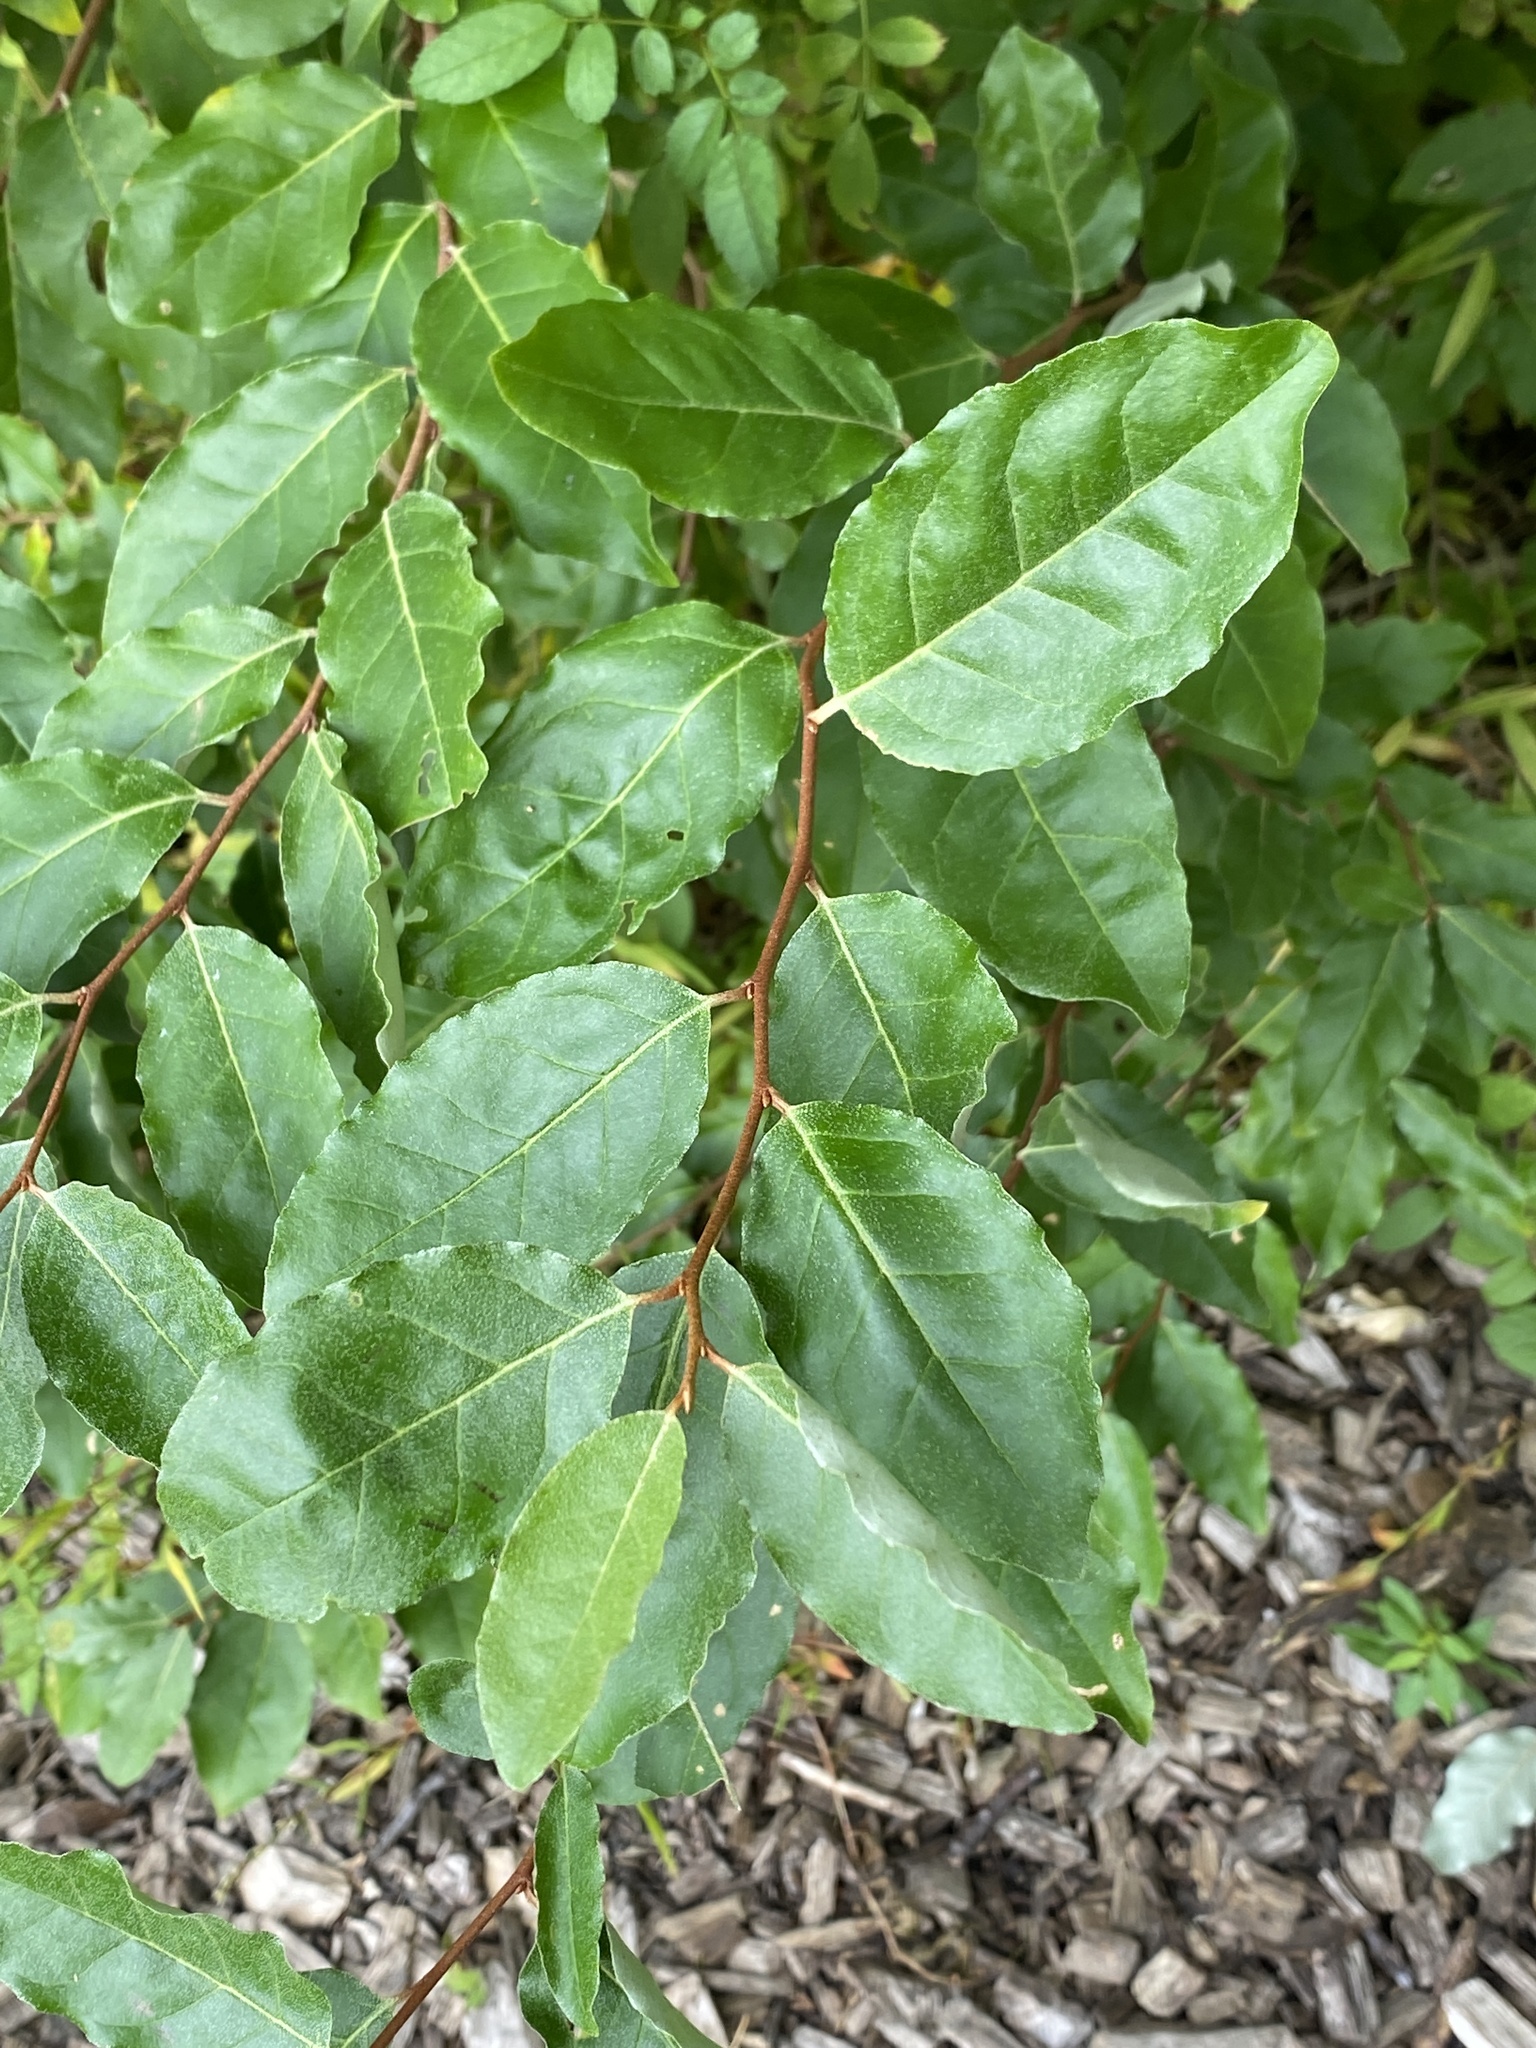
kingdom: Plantae
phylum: Tracheophyta
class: Magnoliopsida
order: Rosales
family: Elaeagnaceae
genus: Elaeagnus
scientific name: Elaeagnus umbellata
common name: Autumn olive
